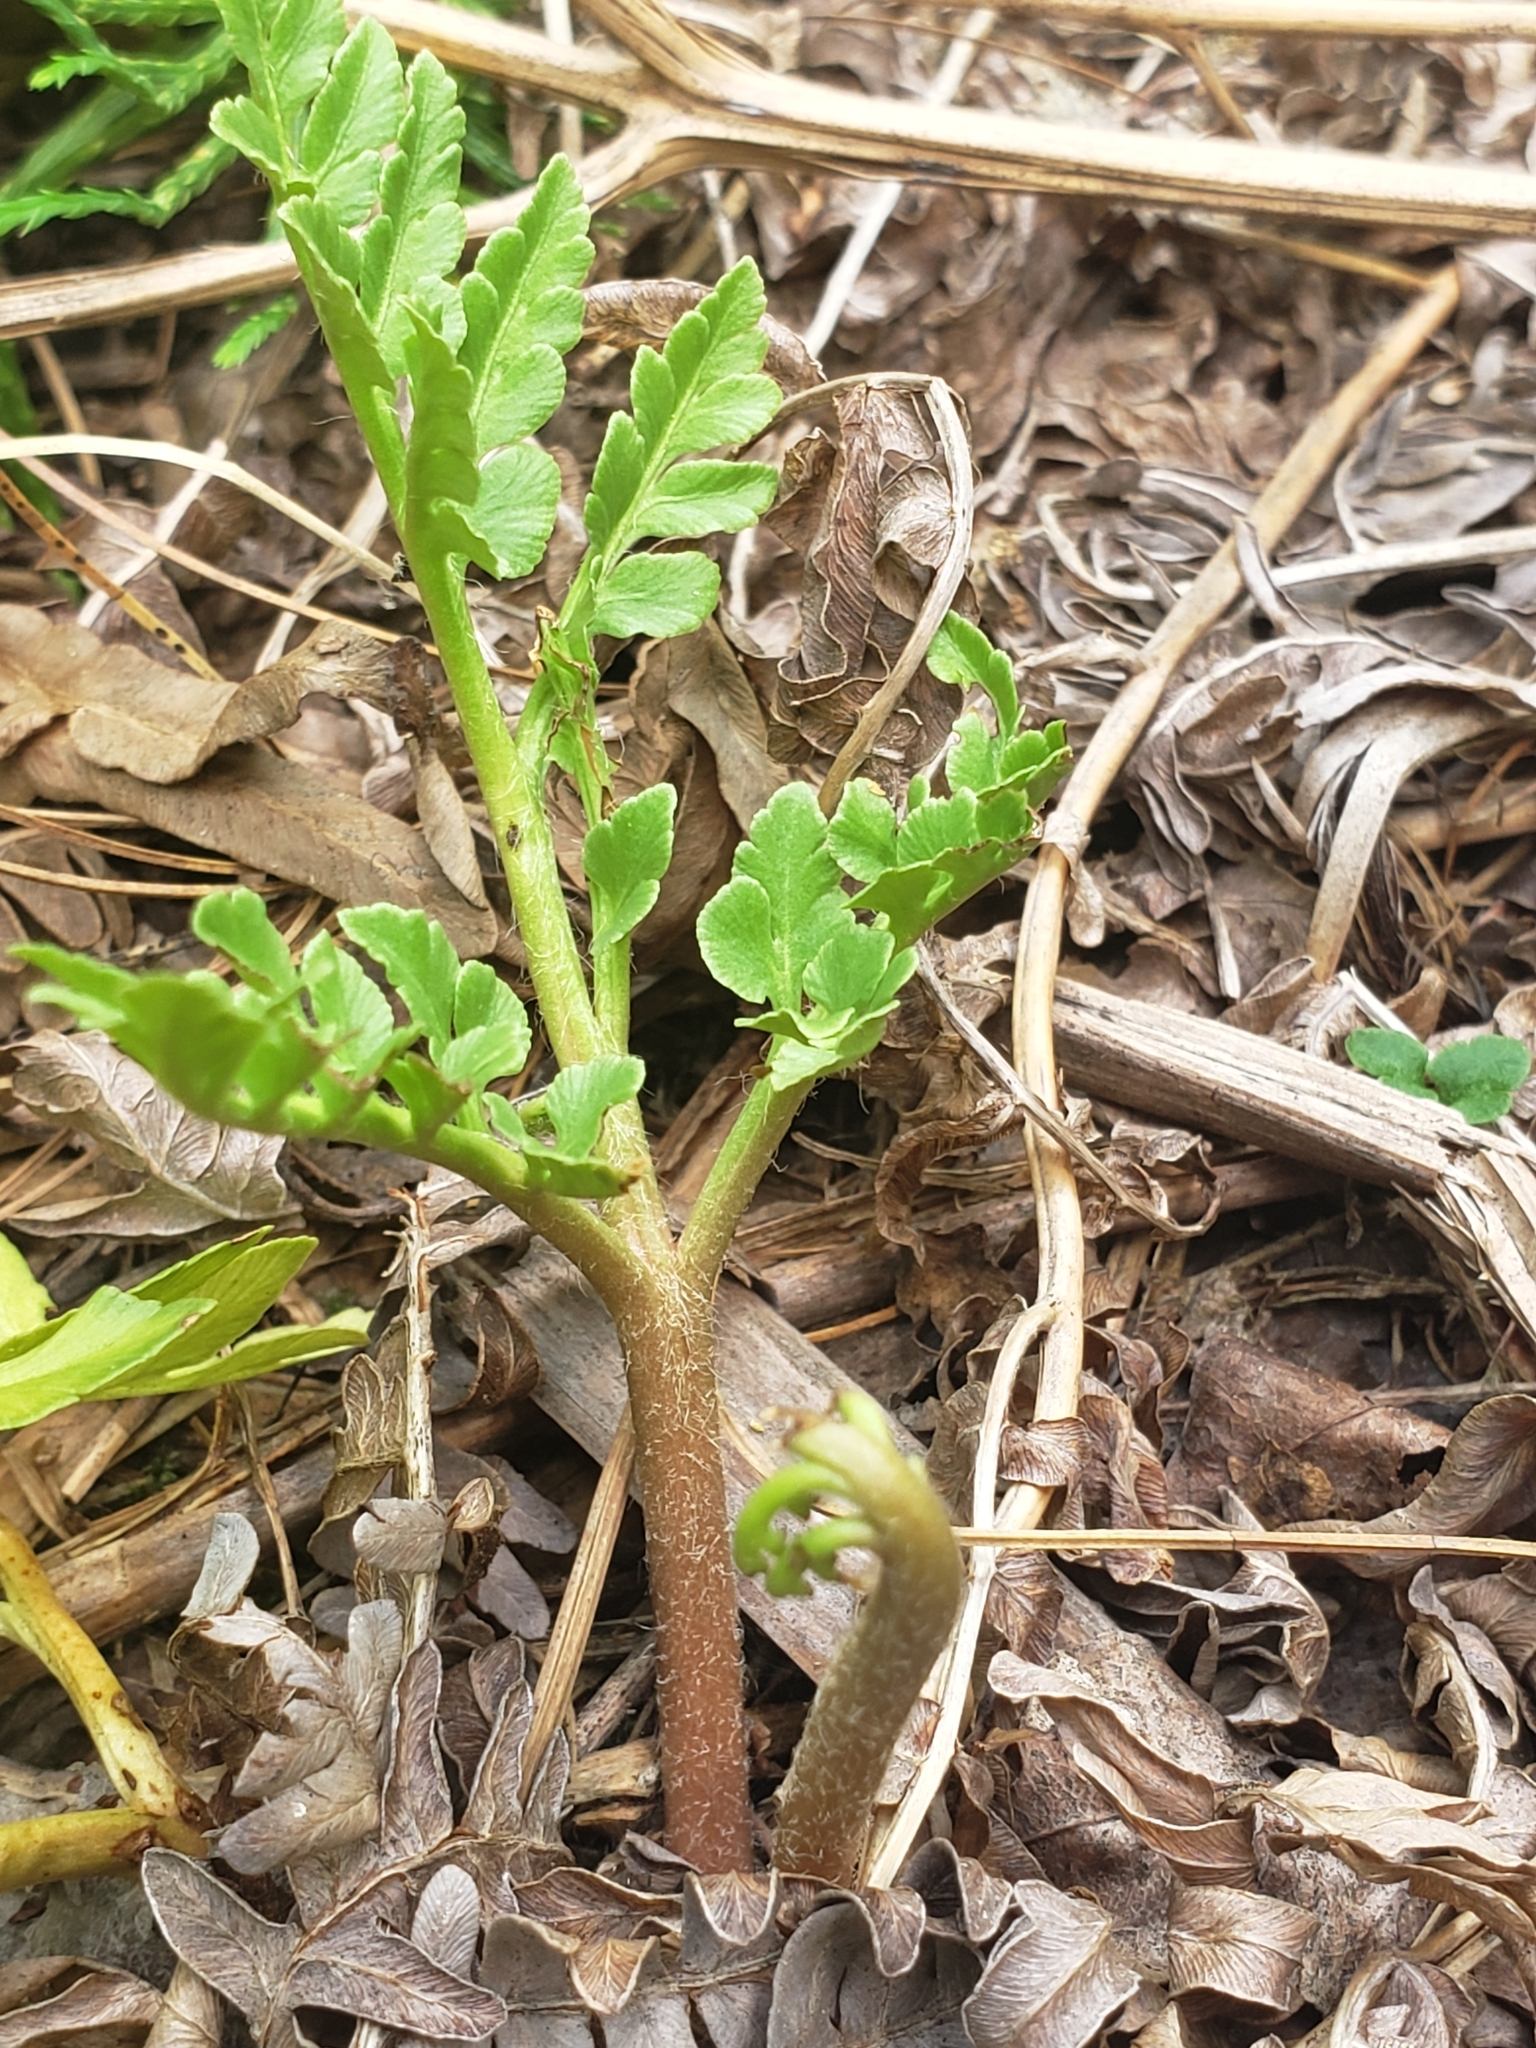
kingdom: Plantae
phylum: Tracheophyta
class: Polypodiopsida
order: Ophioglossales
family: Ophioglossaceae
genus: Sceptridium
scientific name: Sceptridium multifidum
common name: Leathery grape fern
